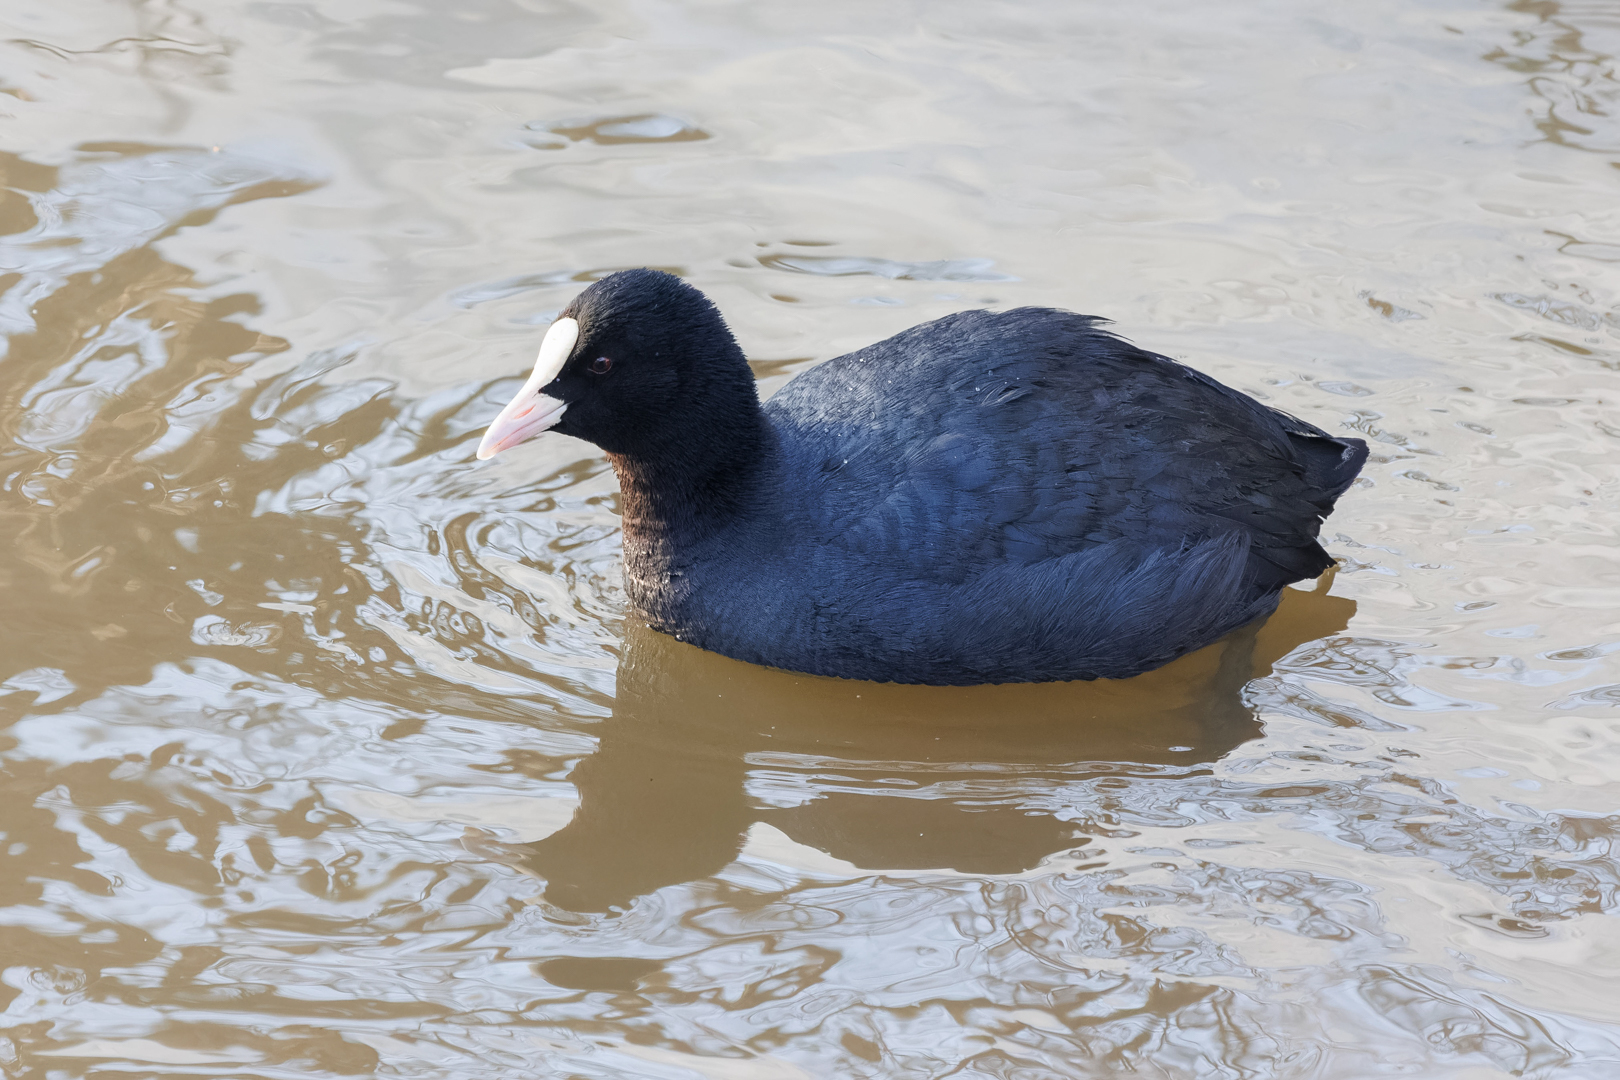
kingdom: Animalia
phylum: Chordata
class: Aves
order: Gruiformes
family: Rallidae
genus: Fulica
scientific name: Fulica atra
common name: Eurasian coot
